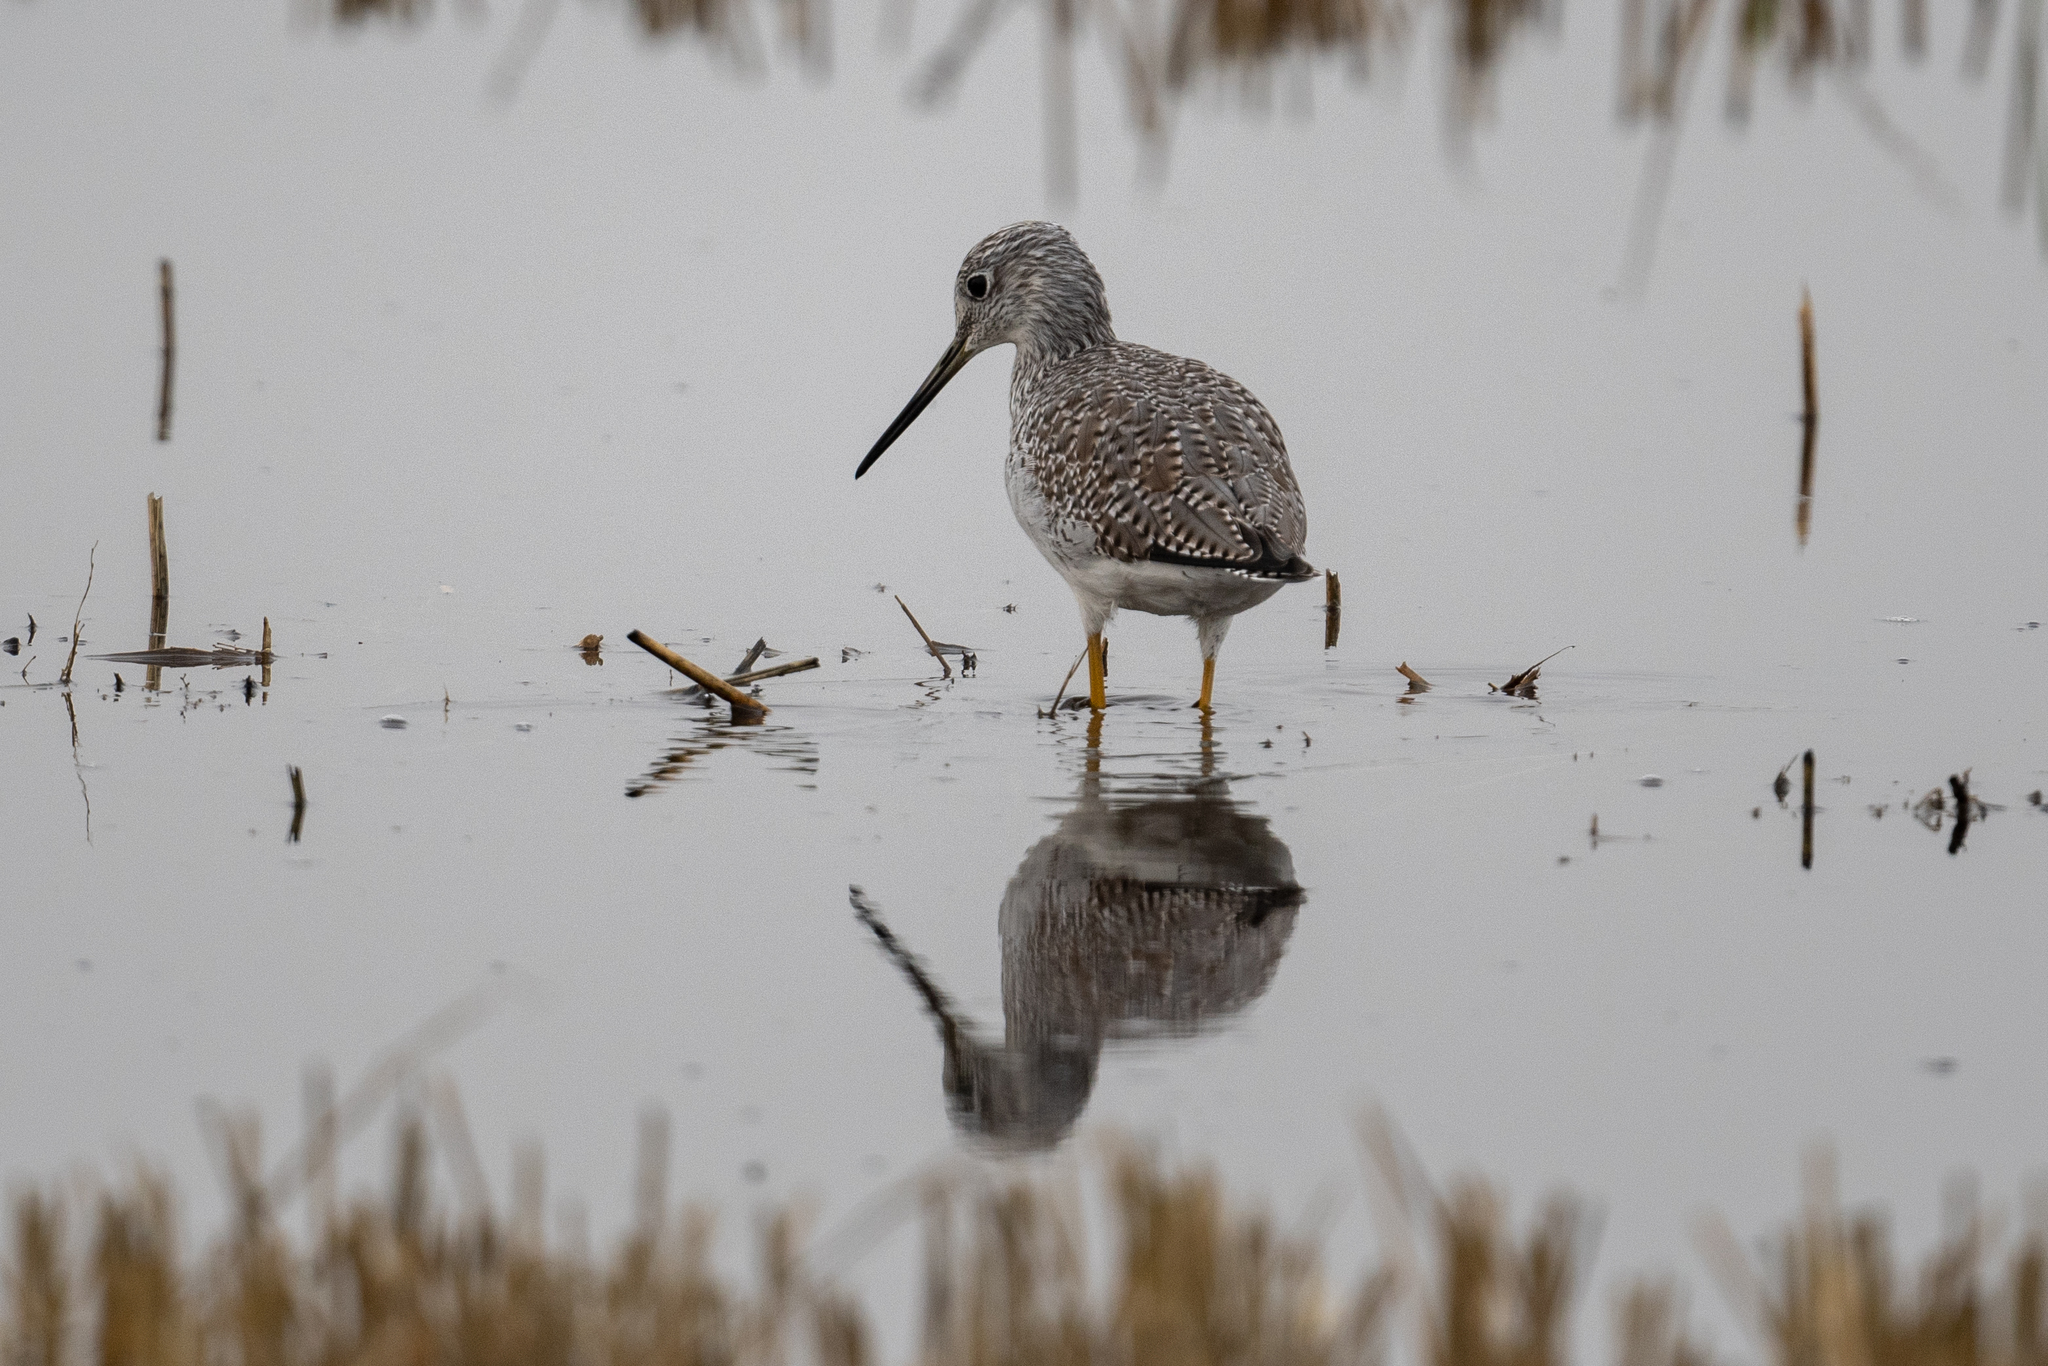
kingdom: Animalia
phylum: Chordata
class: Aves
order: Charadriiformes
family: Scolopacidae
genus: Tringa
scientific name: Tringa melanoleuca
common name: Greater yellowlegs
